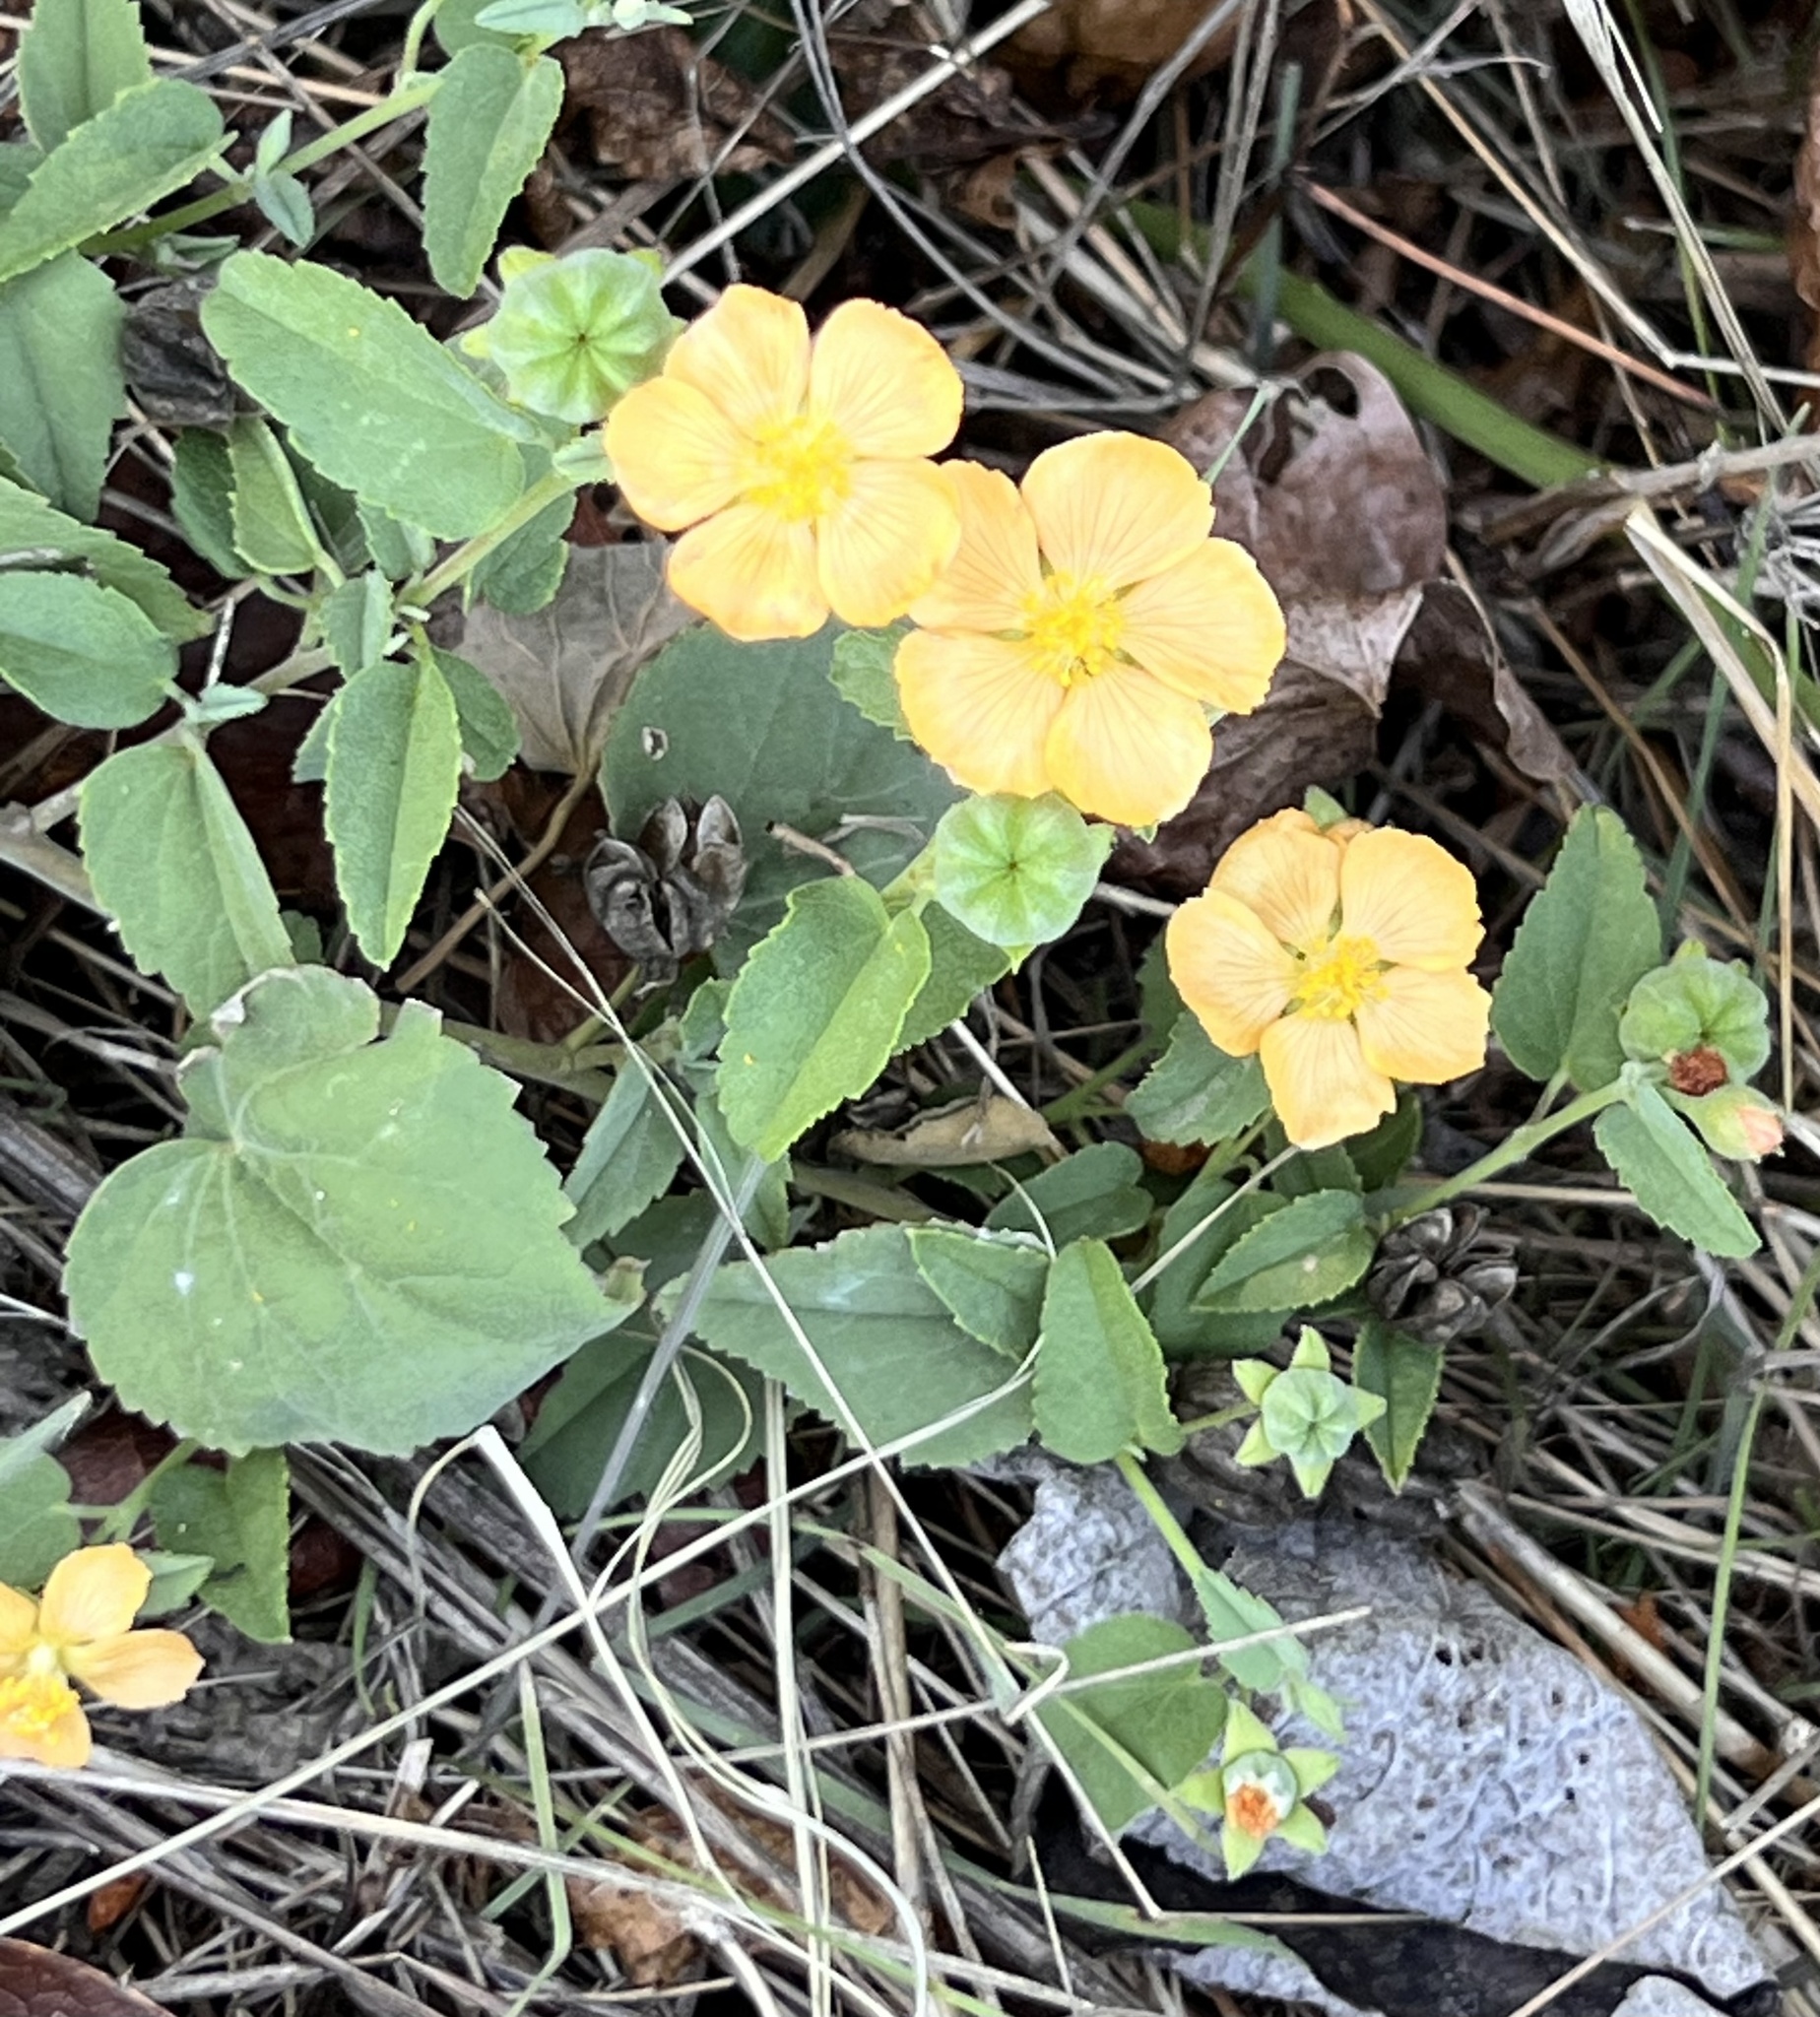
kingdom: Plantae
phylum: Tracheophyta
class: Magnoliopsida
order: Malvales
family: Malvaceae
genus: Abutilon
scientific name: Abutilon fruticosum
